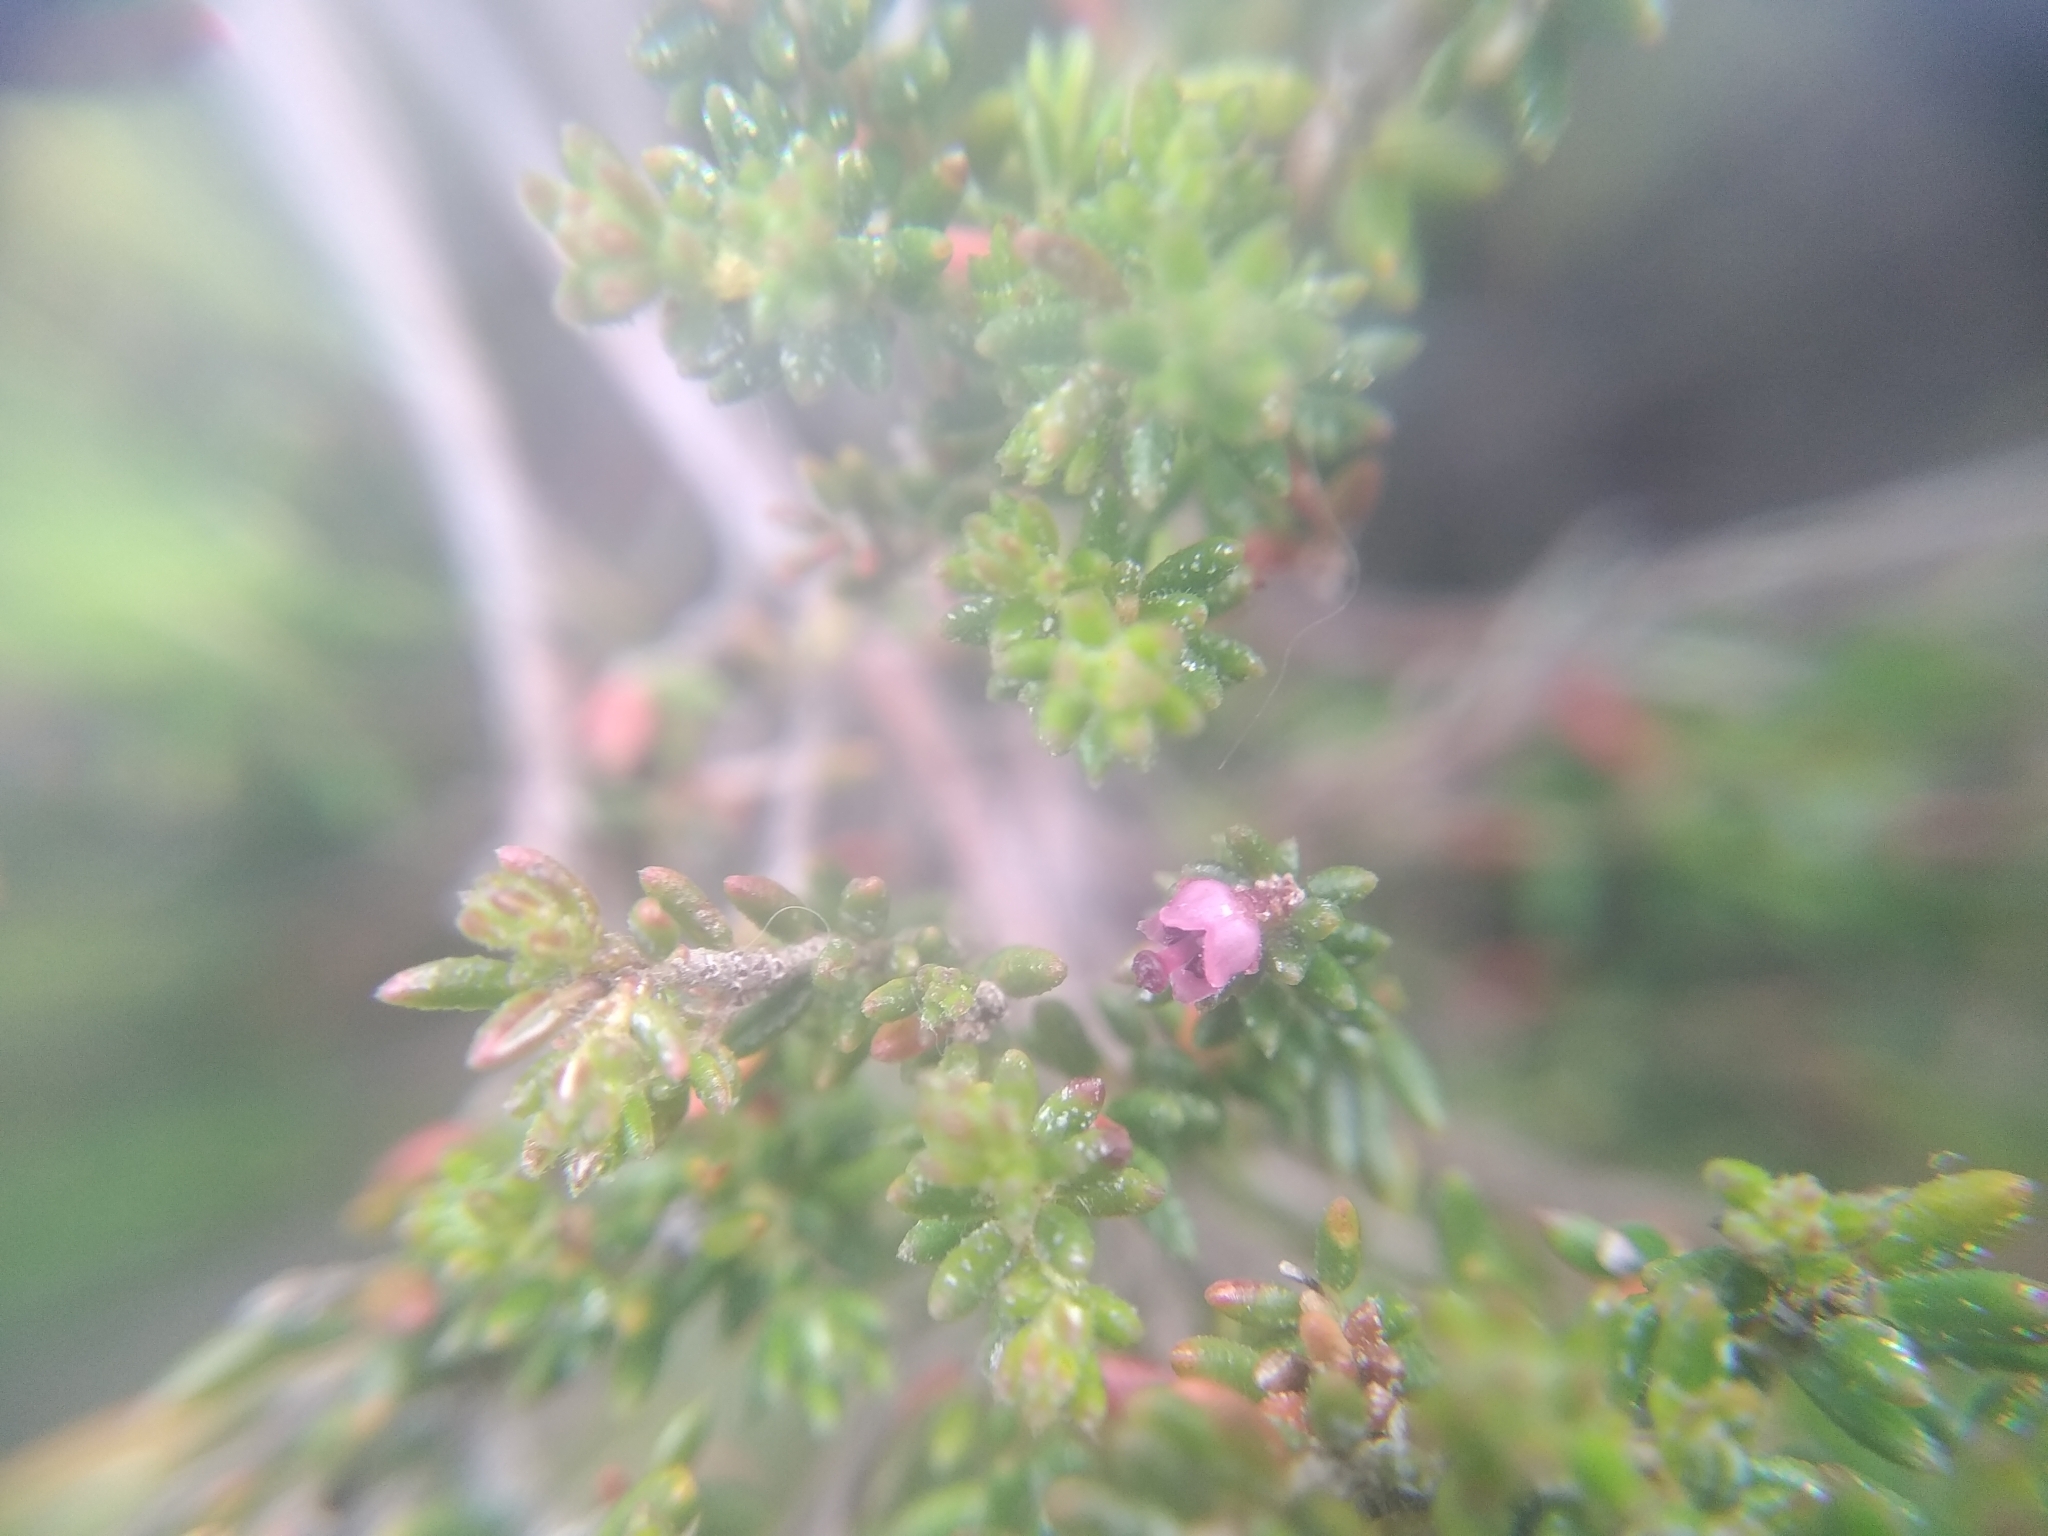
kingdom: Plantae
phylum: Tracheophyta
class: Magnoliopsida
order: Ericales
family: Ericaceae
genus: Erica
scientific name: Erica hispidula
